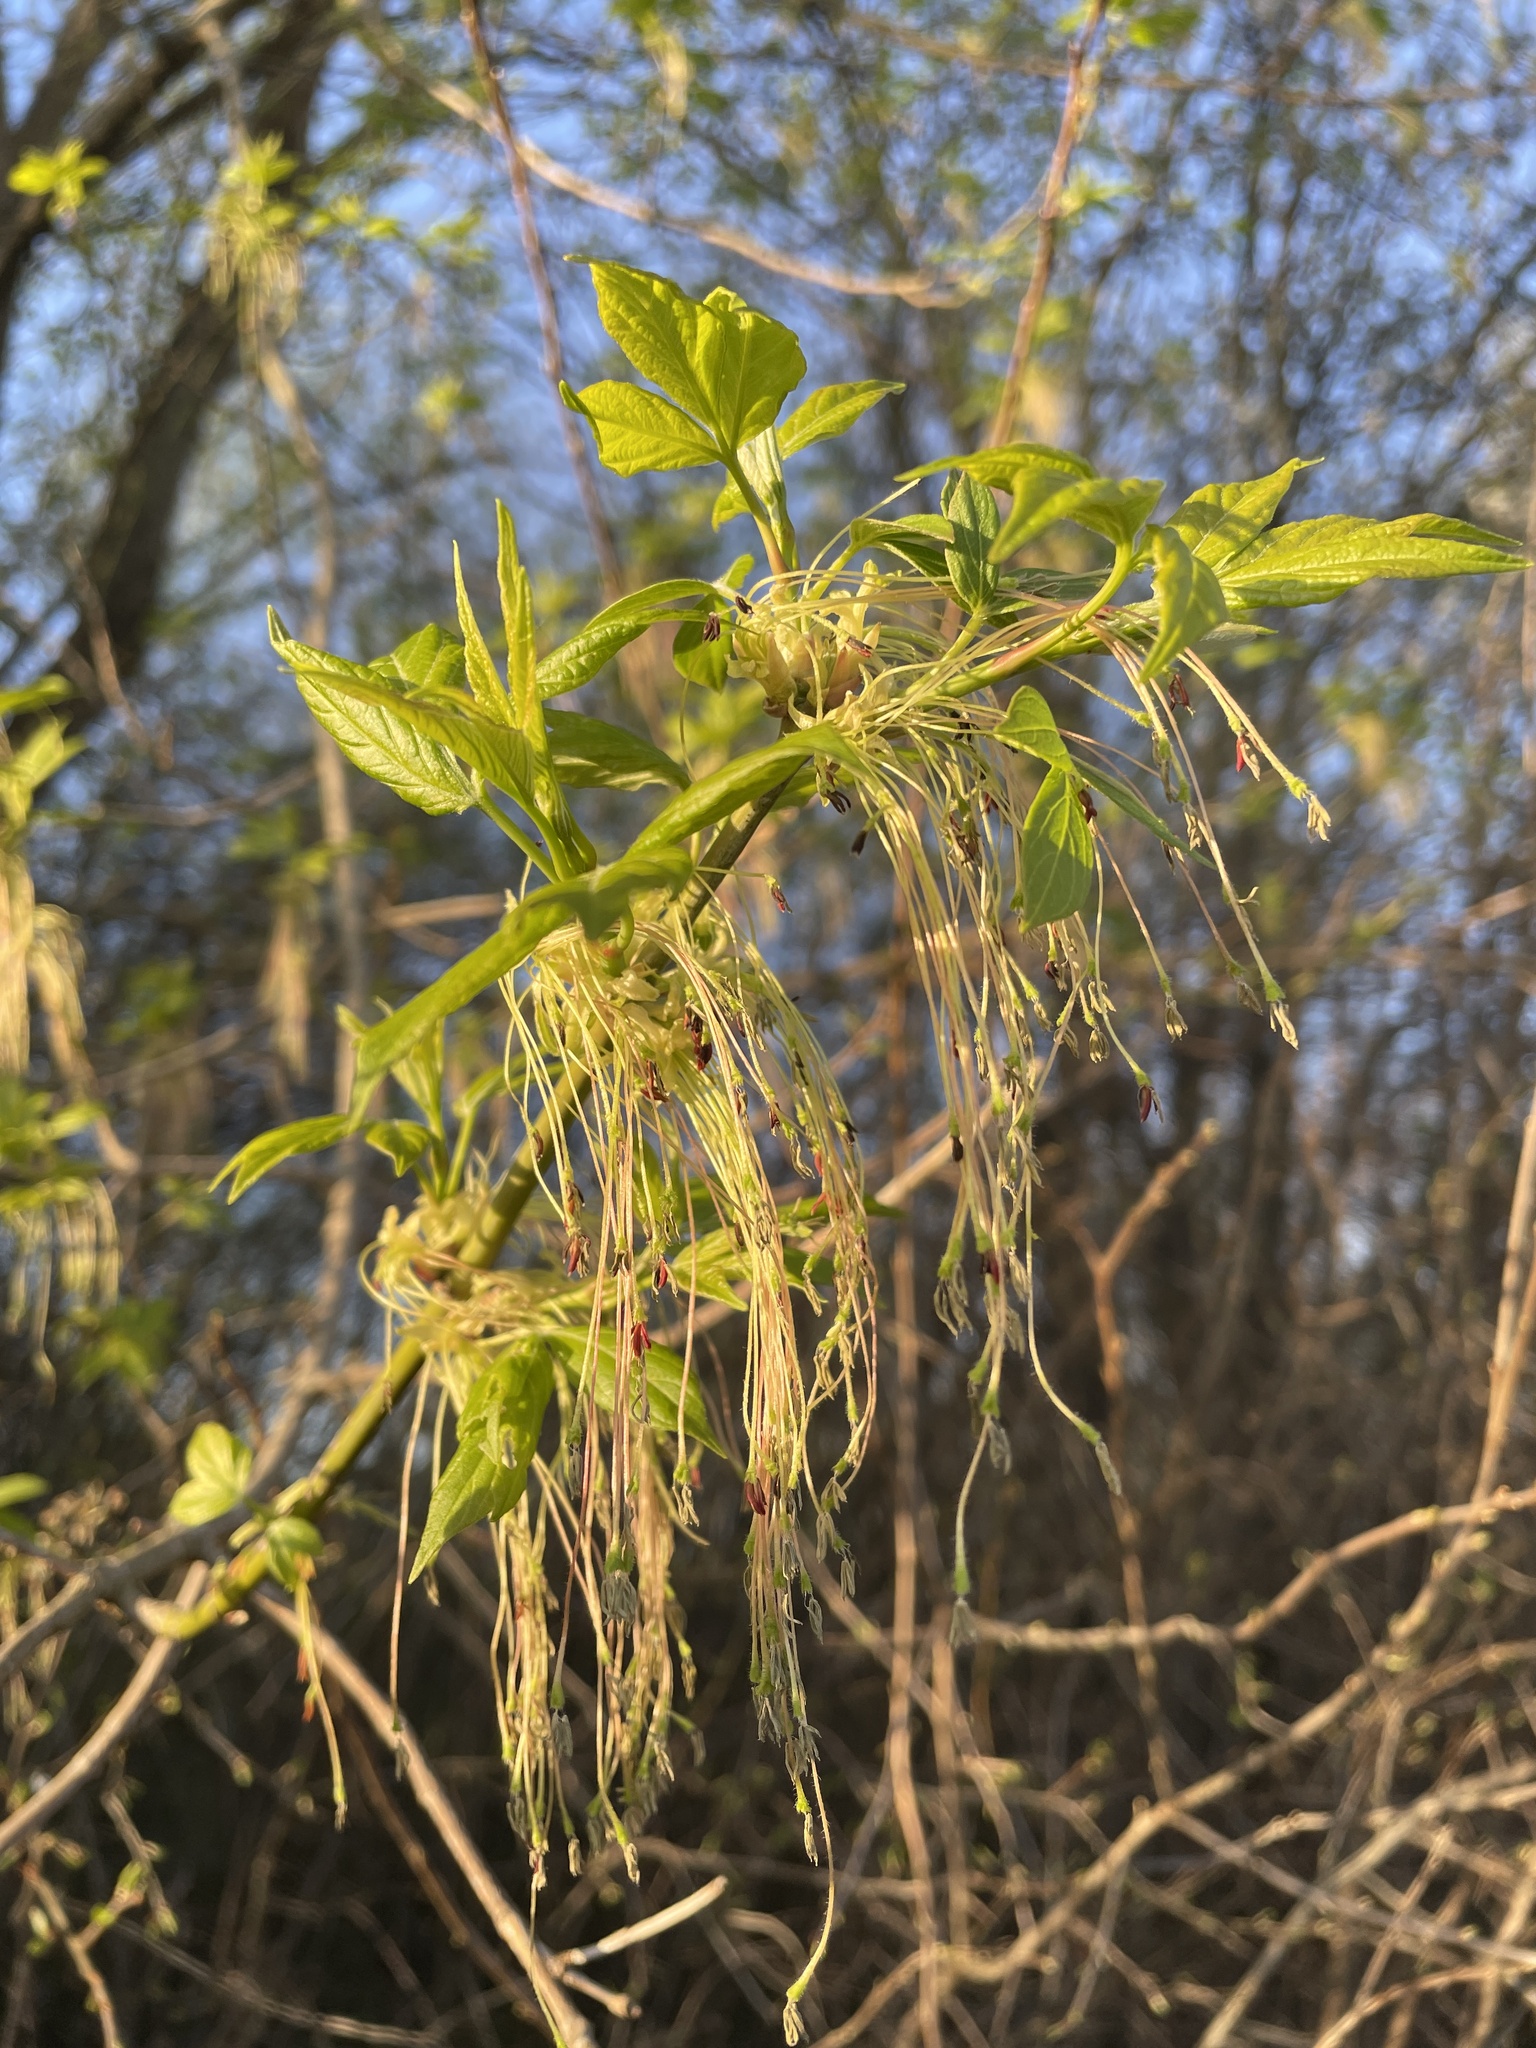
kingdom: Plantae
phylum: Tracheophyta
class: Magnoliopsida
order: Sapindales
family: Sapindaceae
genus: Acer
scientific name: Acer negundo
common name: Ashleaf maple
